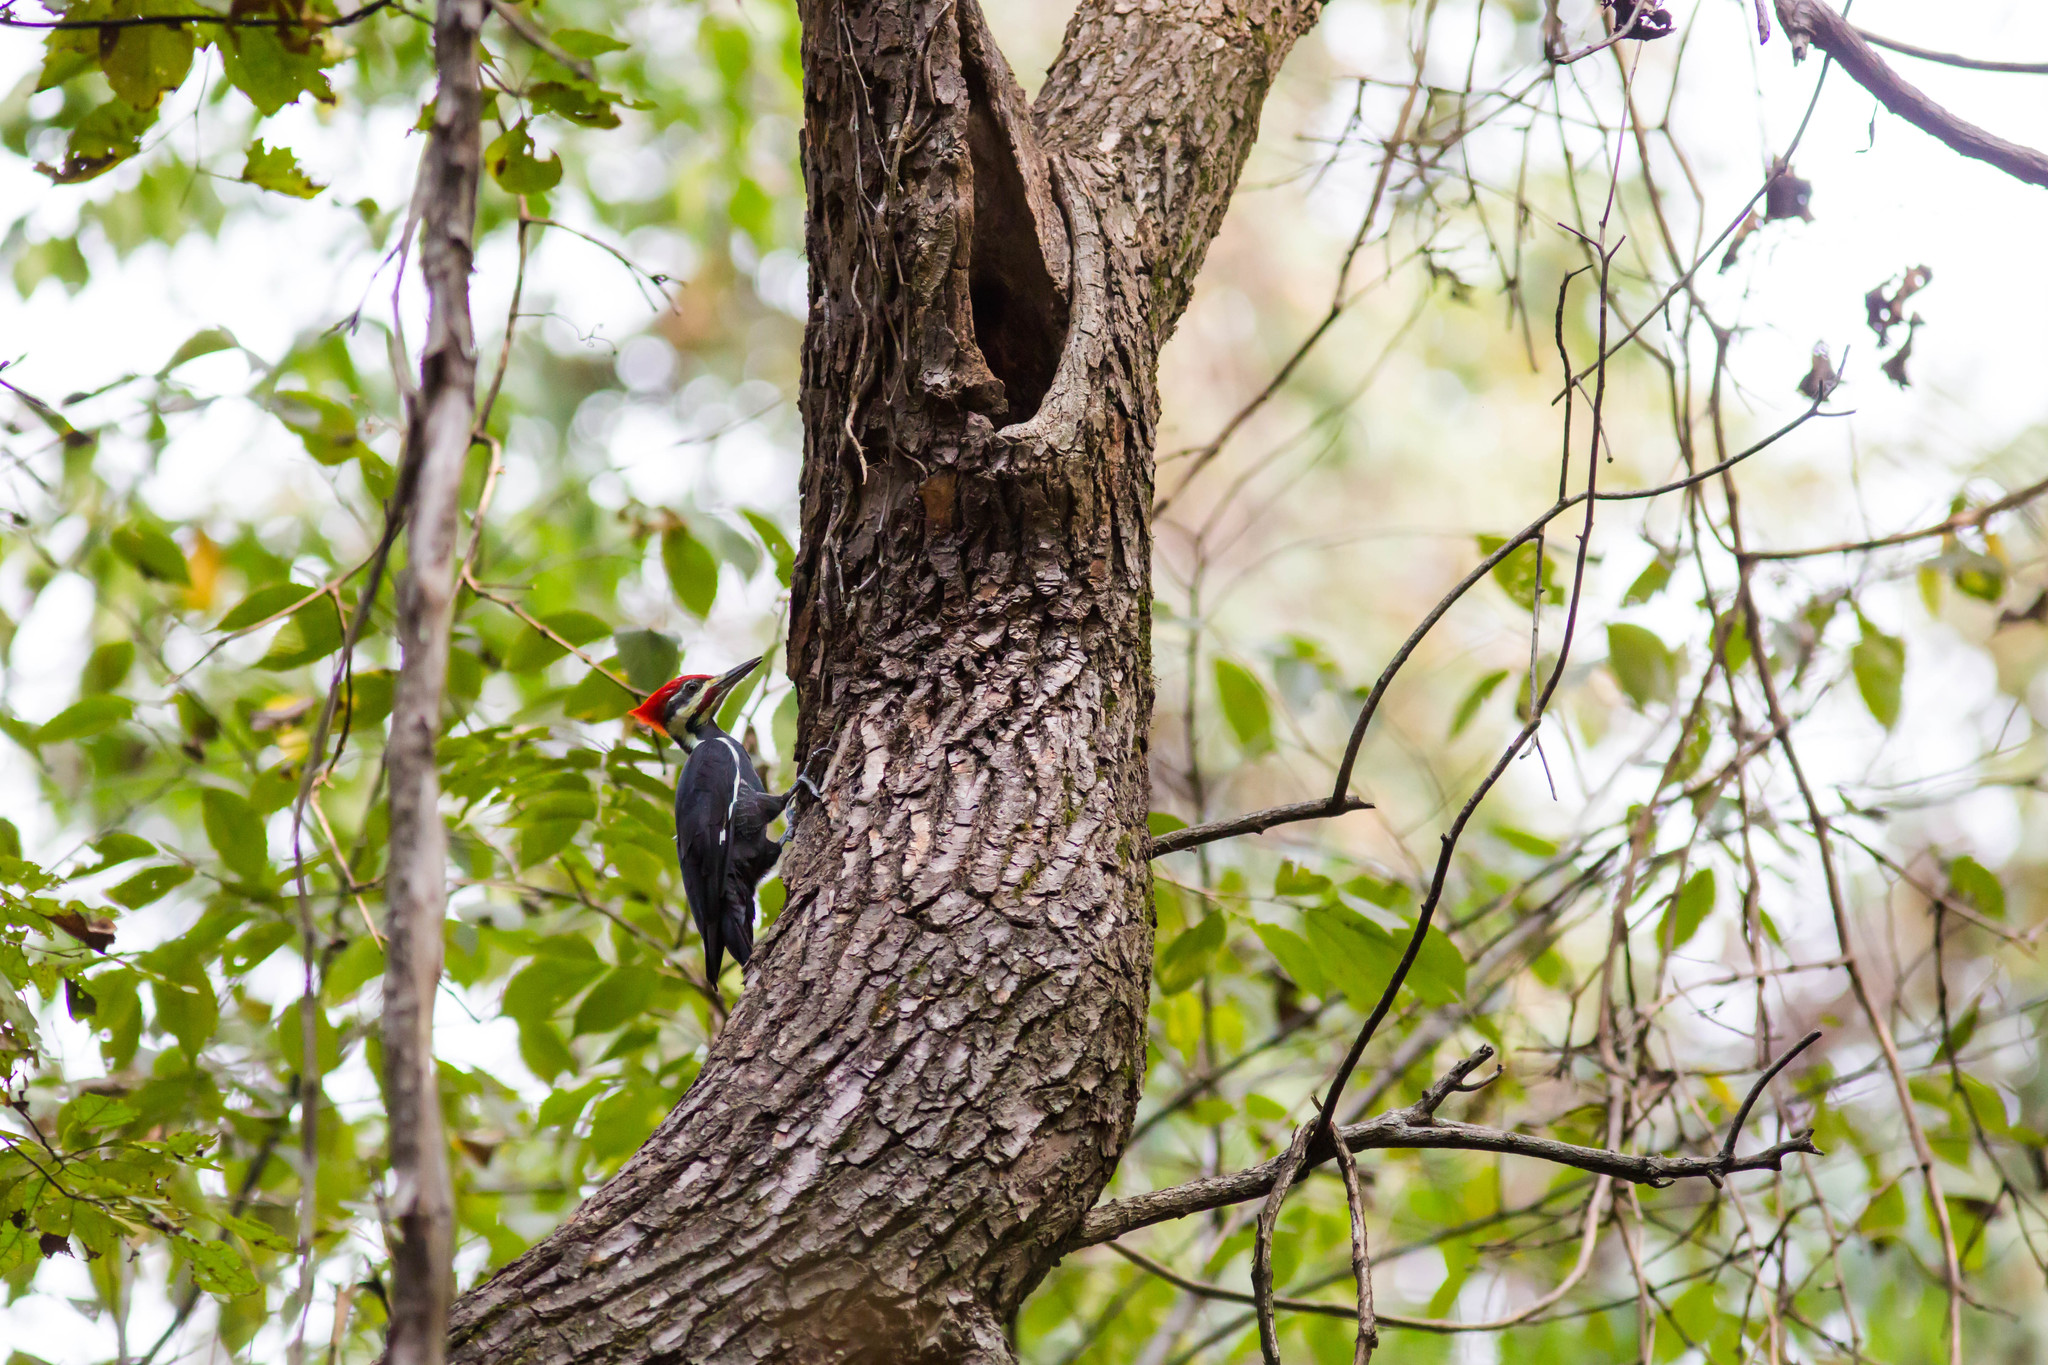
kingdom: Animalia
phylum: Chordata
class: Aves
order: Piciformes
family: Picidae
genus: Dryocopus
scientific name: Dryocopus pileatus
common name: Pileated woodpecker
